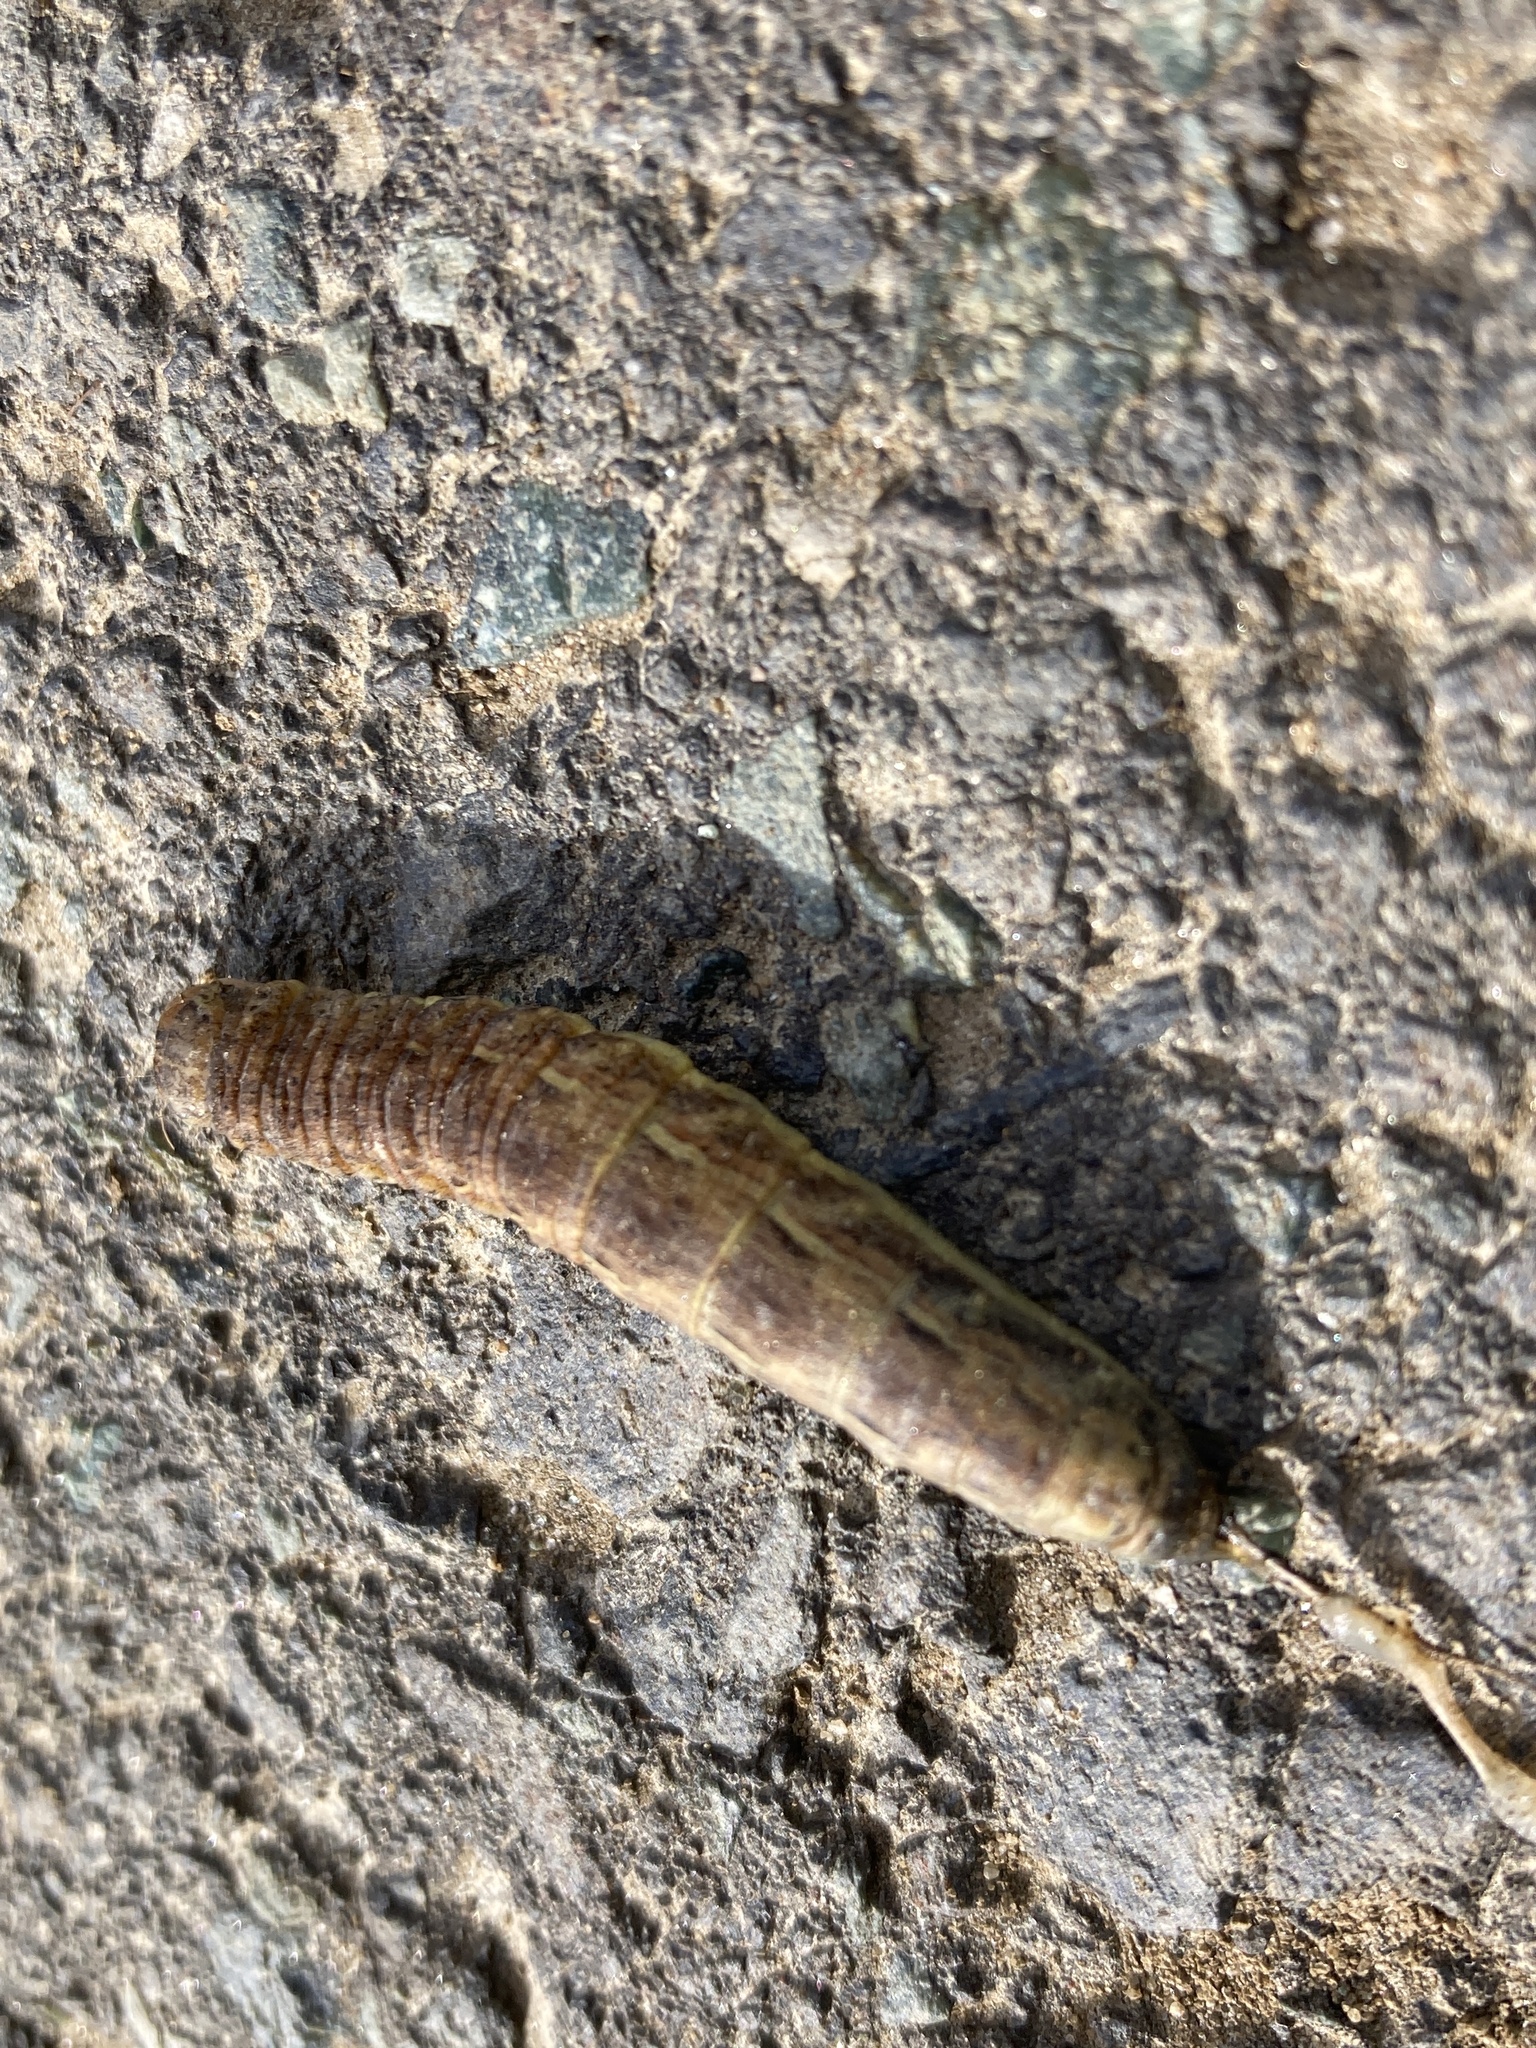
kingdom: Animalia
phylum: Arthropoda
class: Insecta
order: Lepidoptera
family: Noctuidae
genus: Noctua
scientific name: Noctua pronuba
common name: Large yellow underwing
